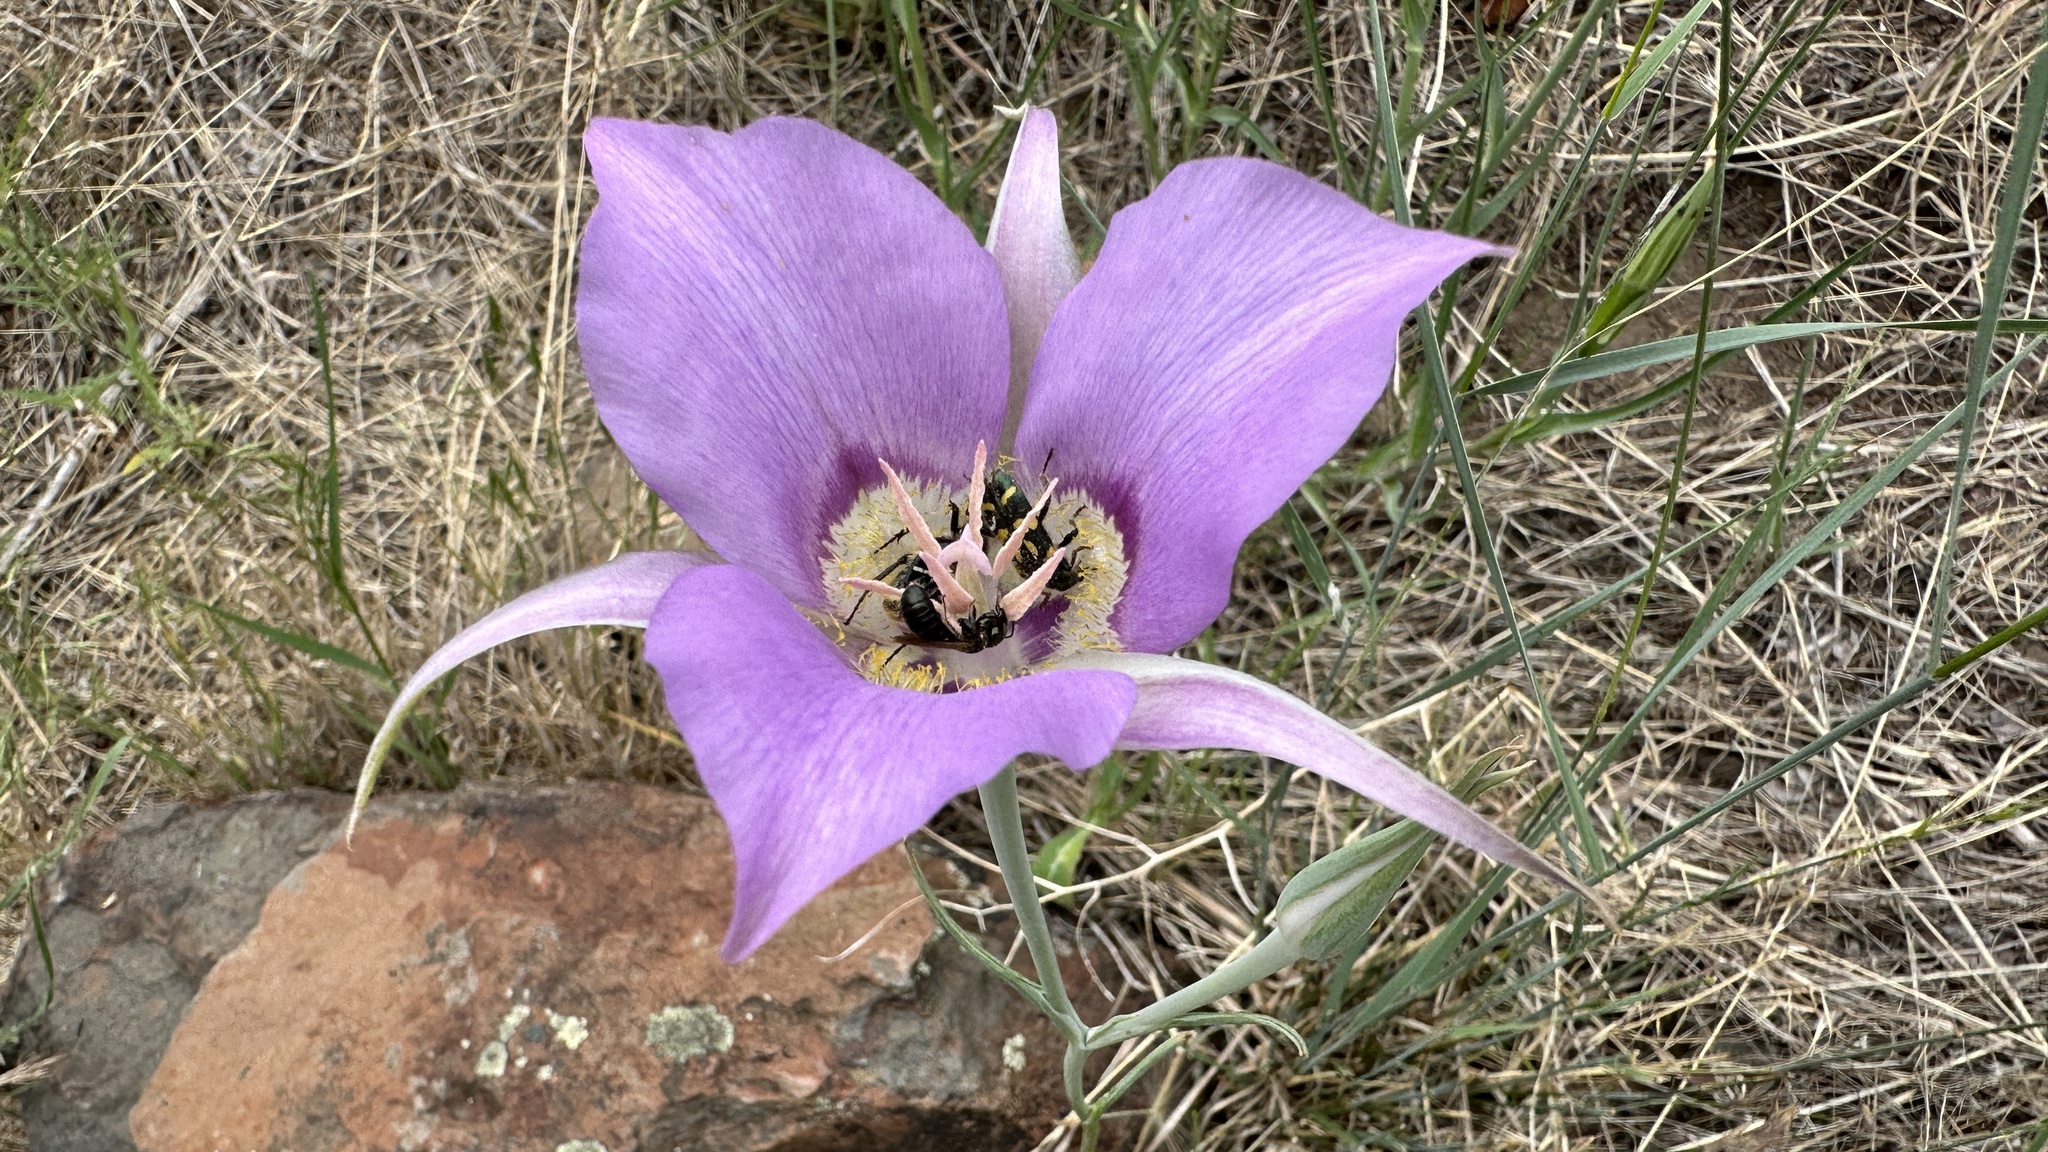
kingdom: Plantae
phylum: Tracheophyta
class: Liliopsida
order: Liliales
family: Liliaceae
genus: Calochortus
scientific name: Calochortus macrocarpus
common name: Green-band mariposa lily
